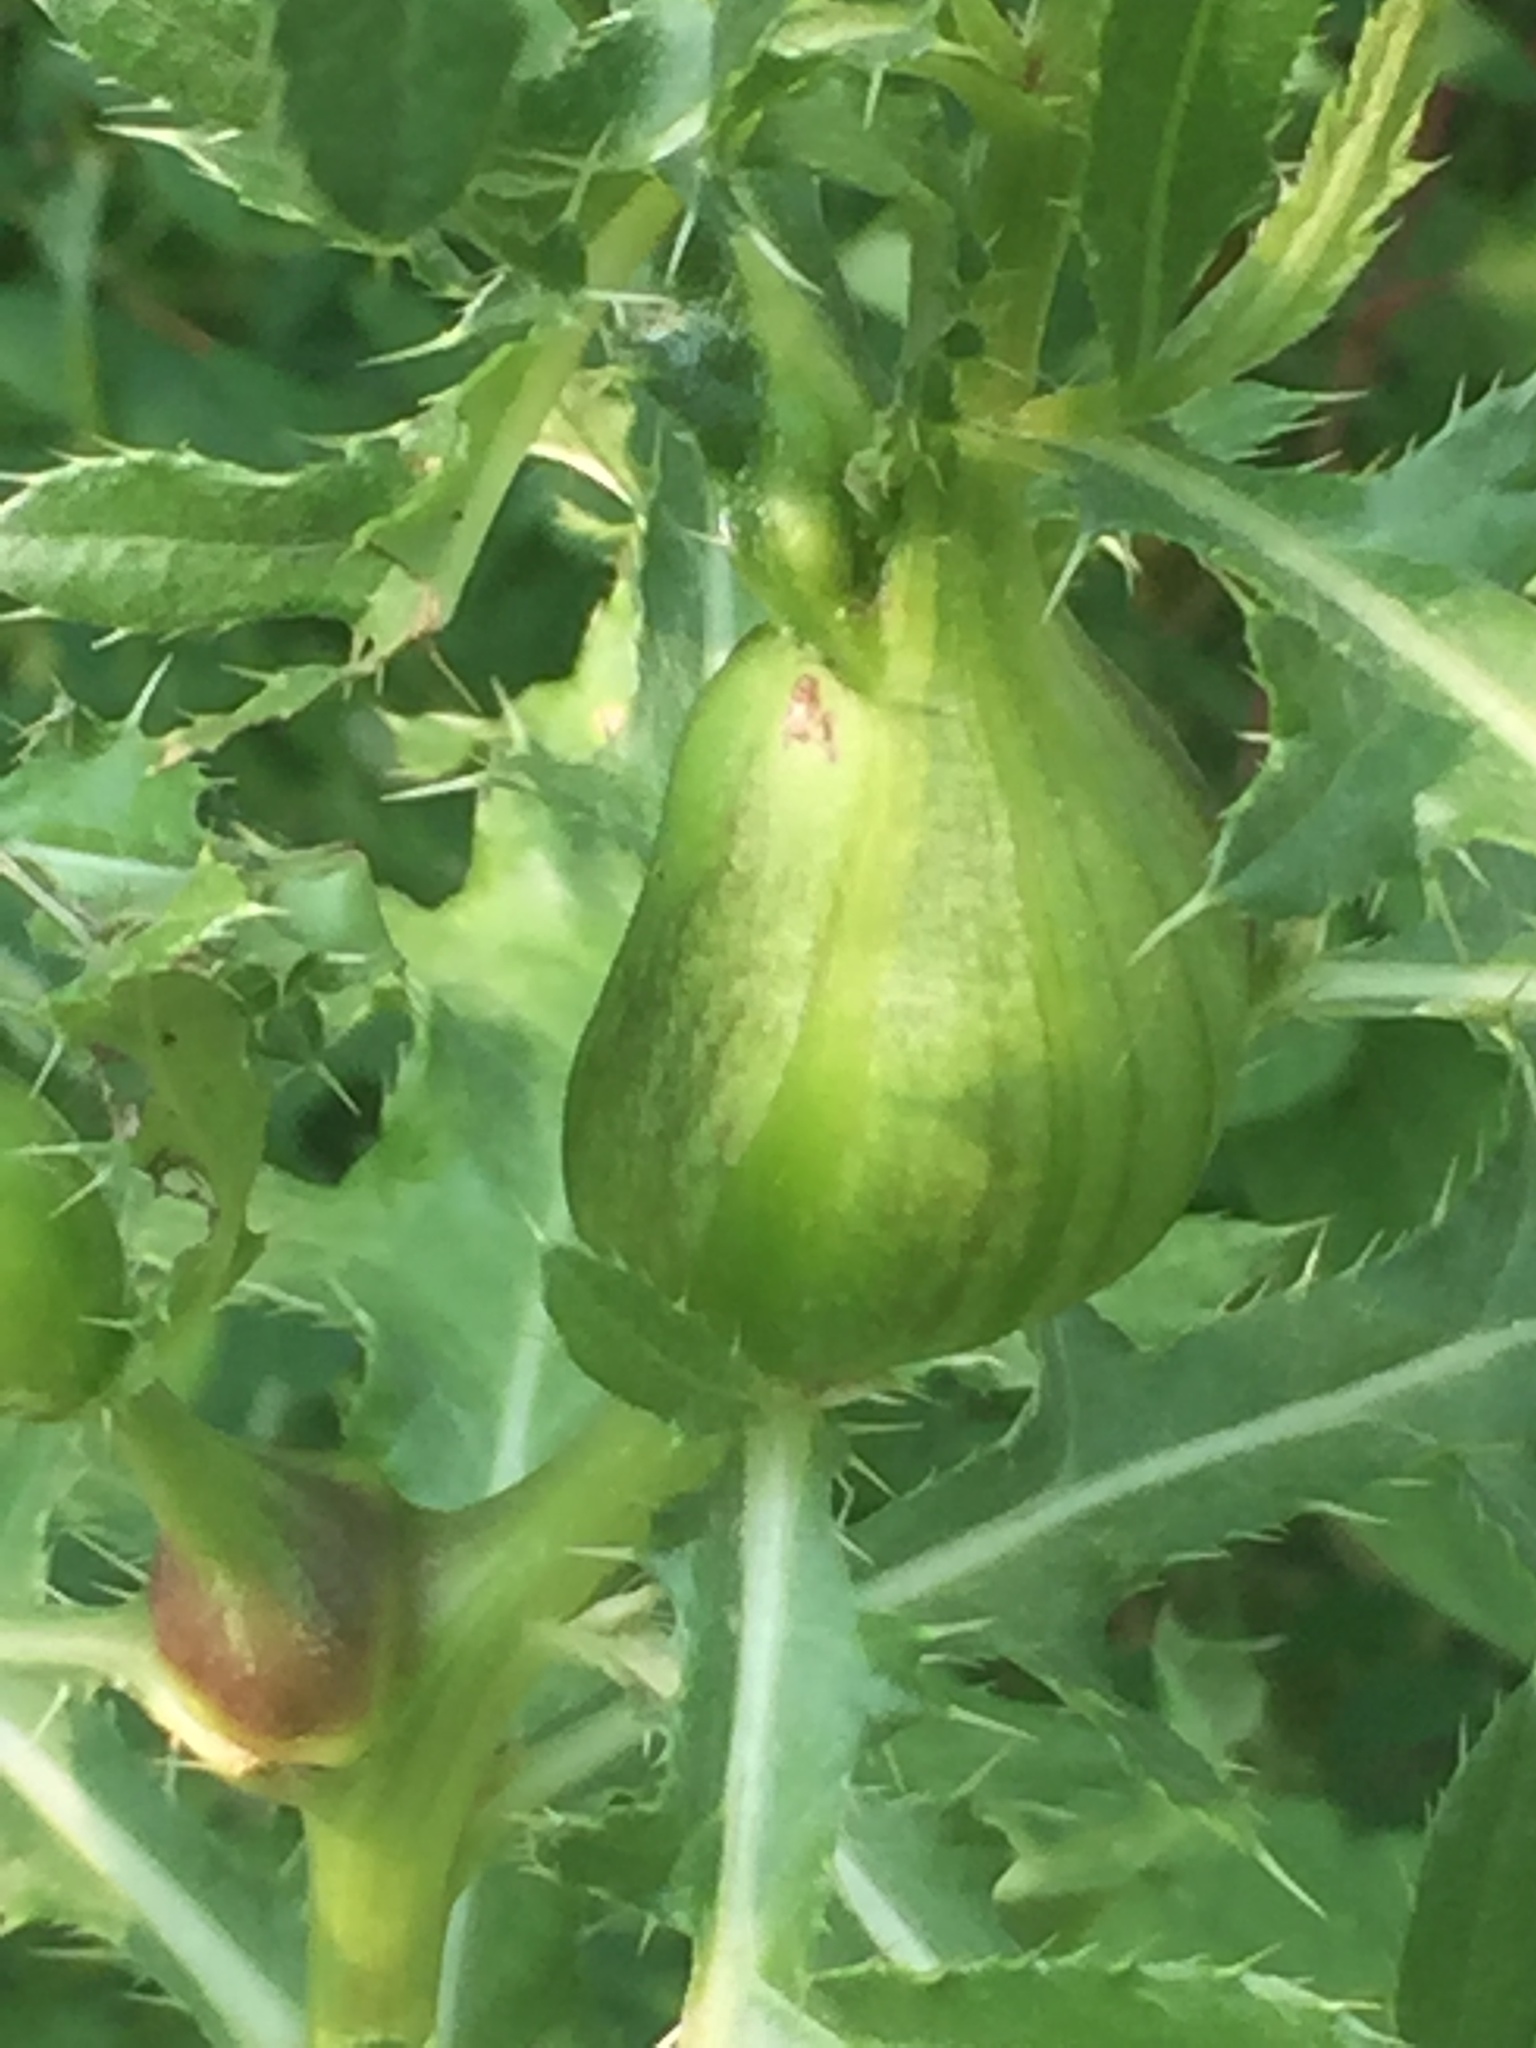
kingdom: Animalia
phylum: Arthropoda
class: Insecta
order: Diptera
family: Tephritidae
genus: Urophora
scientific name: Urophora cardui
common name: Fruit fly
